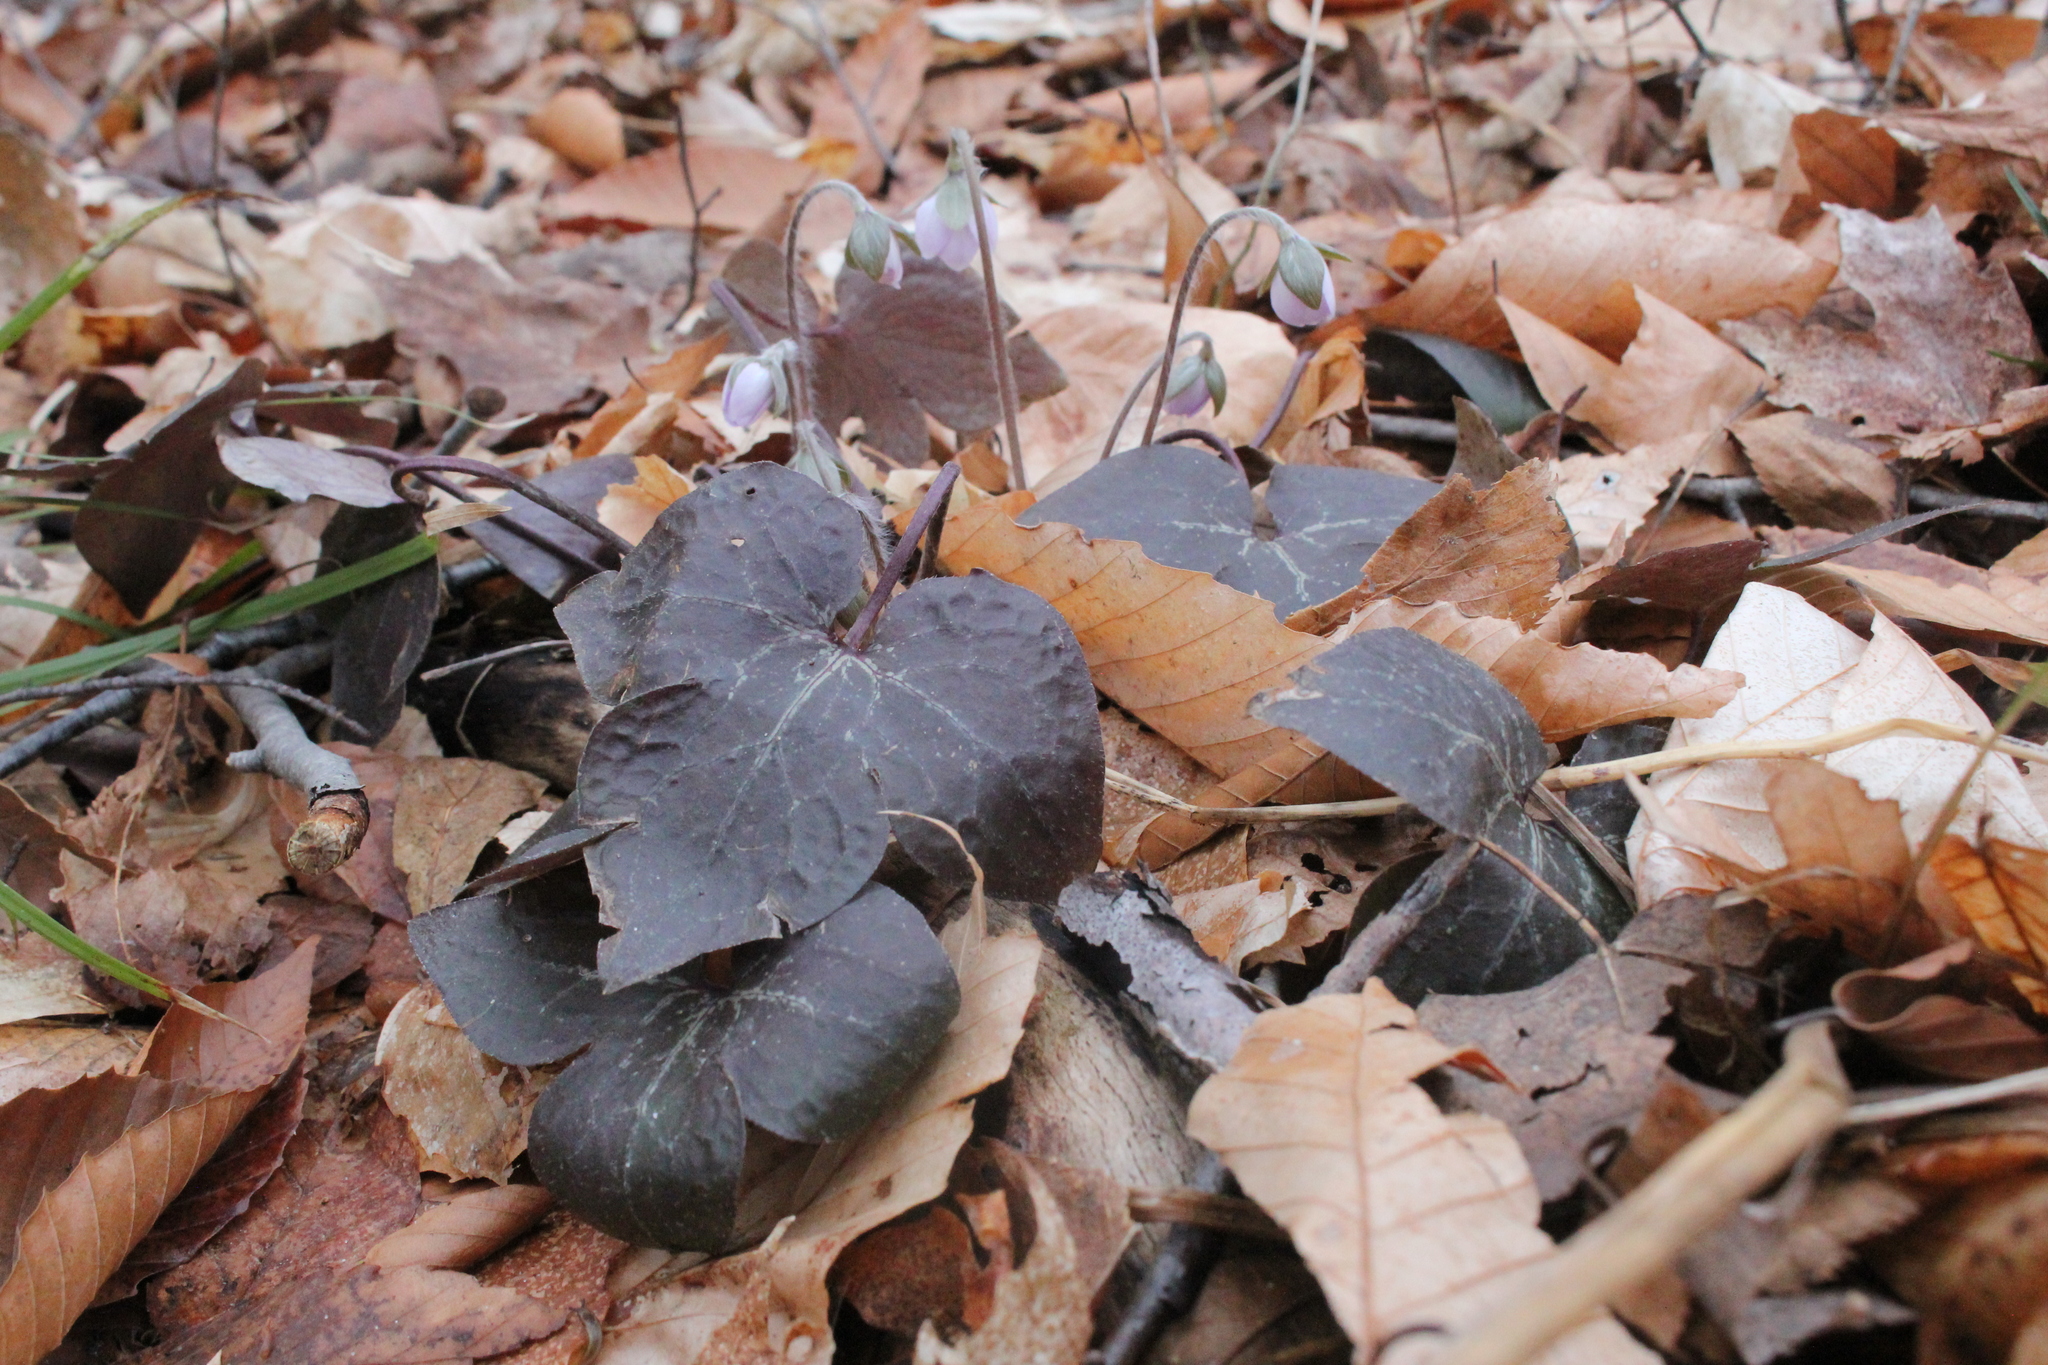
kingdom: Plantae
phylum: Tracheophyta
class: Magnoliopsida
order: Ranunculales
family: Ranunculaceae
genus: Hepatica
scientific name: Hepatica acutiloba
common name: Sharp-lobed hepatica
